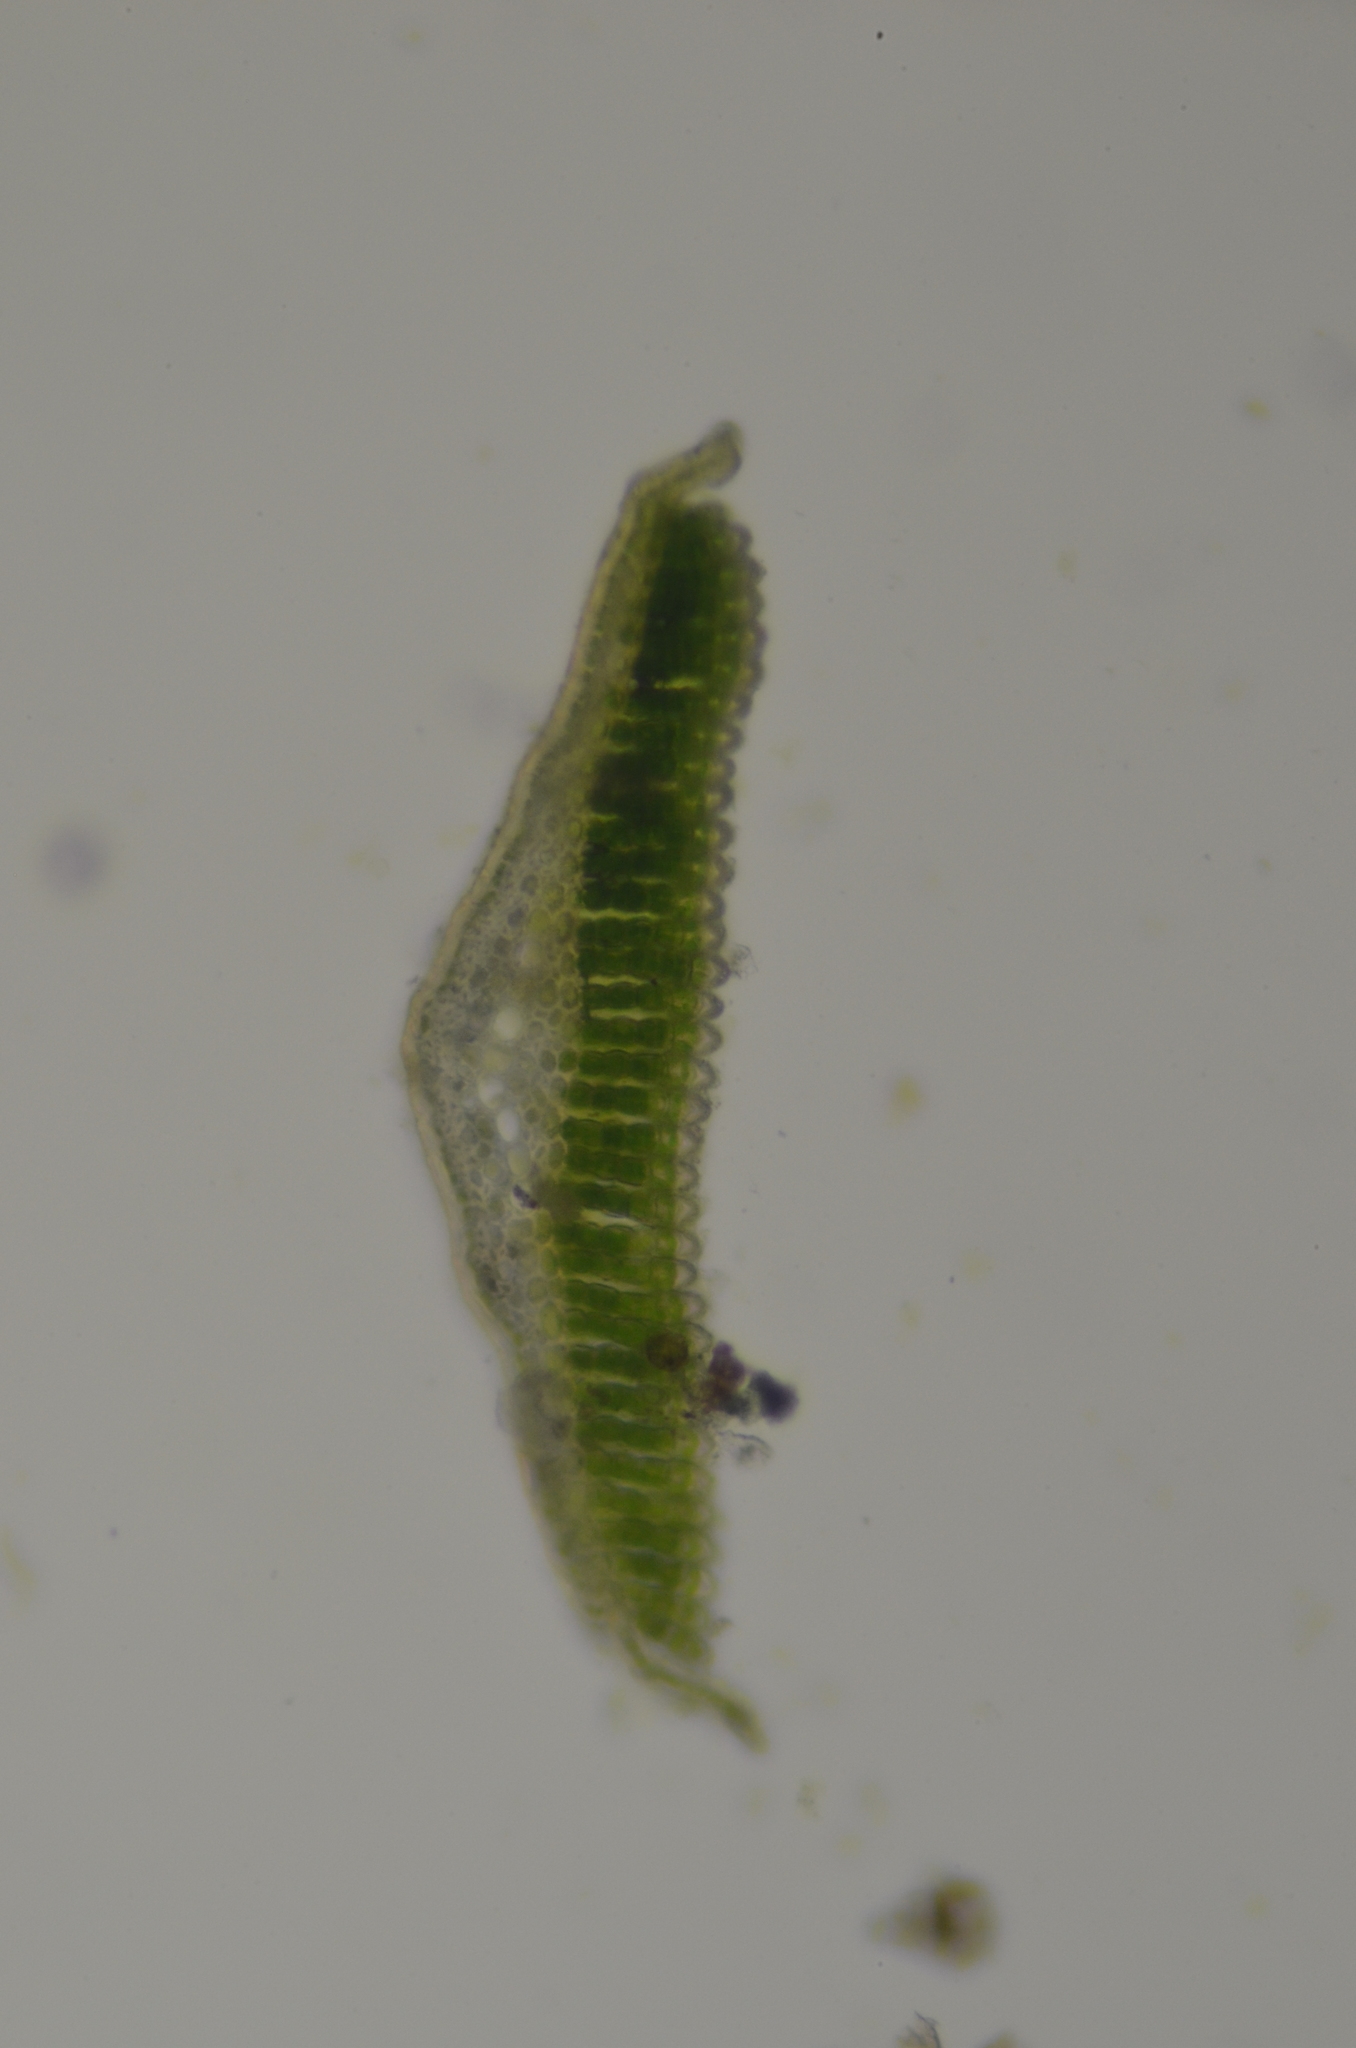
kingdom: Plantae
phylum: Bryophyta
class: Polytrichopsida
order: Polytrichales
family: Polytrichaceae
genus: Polytrichastrum
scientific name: Polytrichastrum alpinum
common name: Alpine haircap
